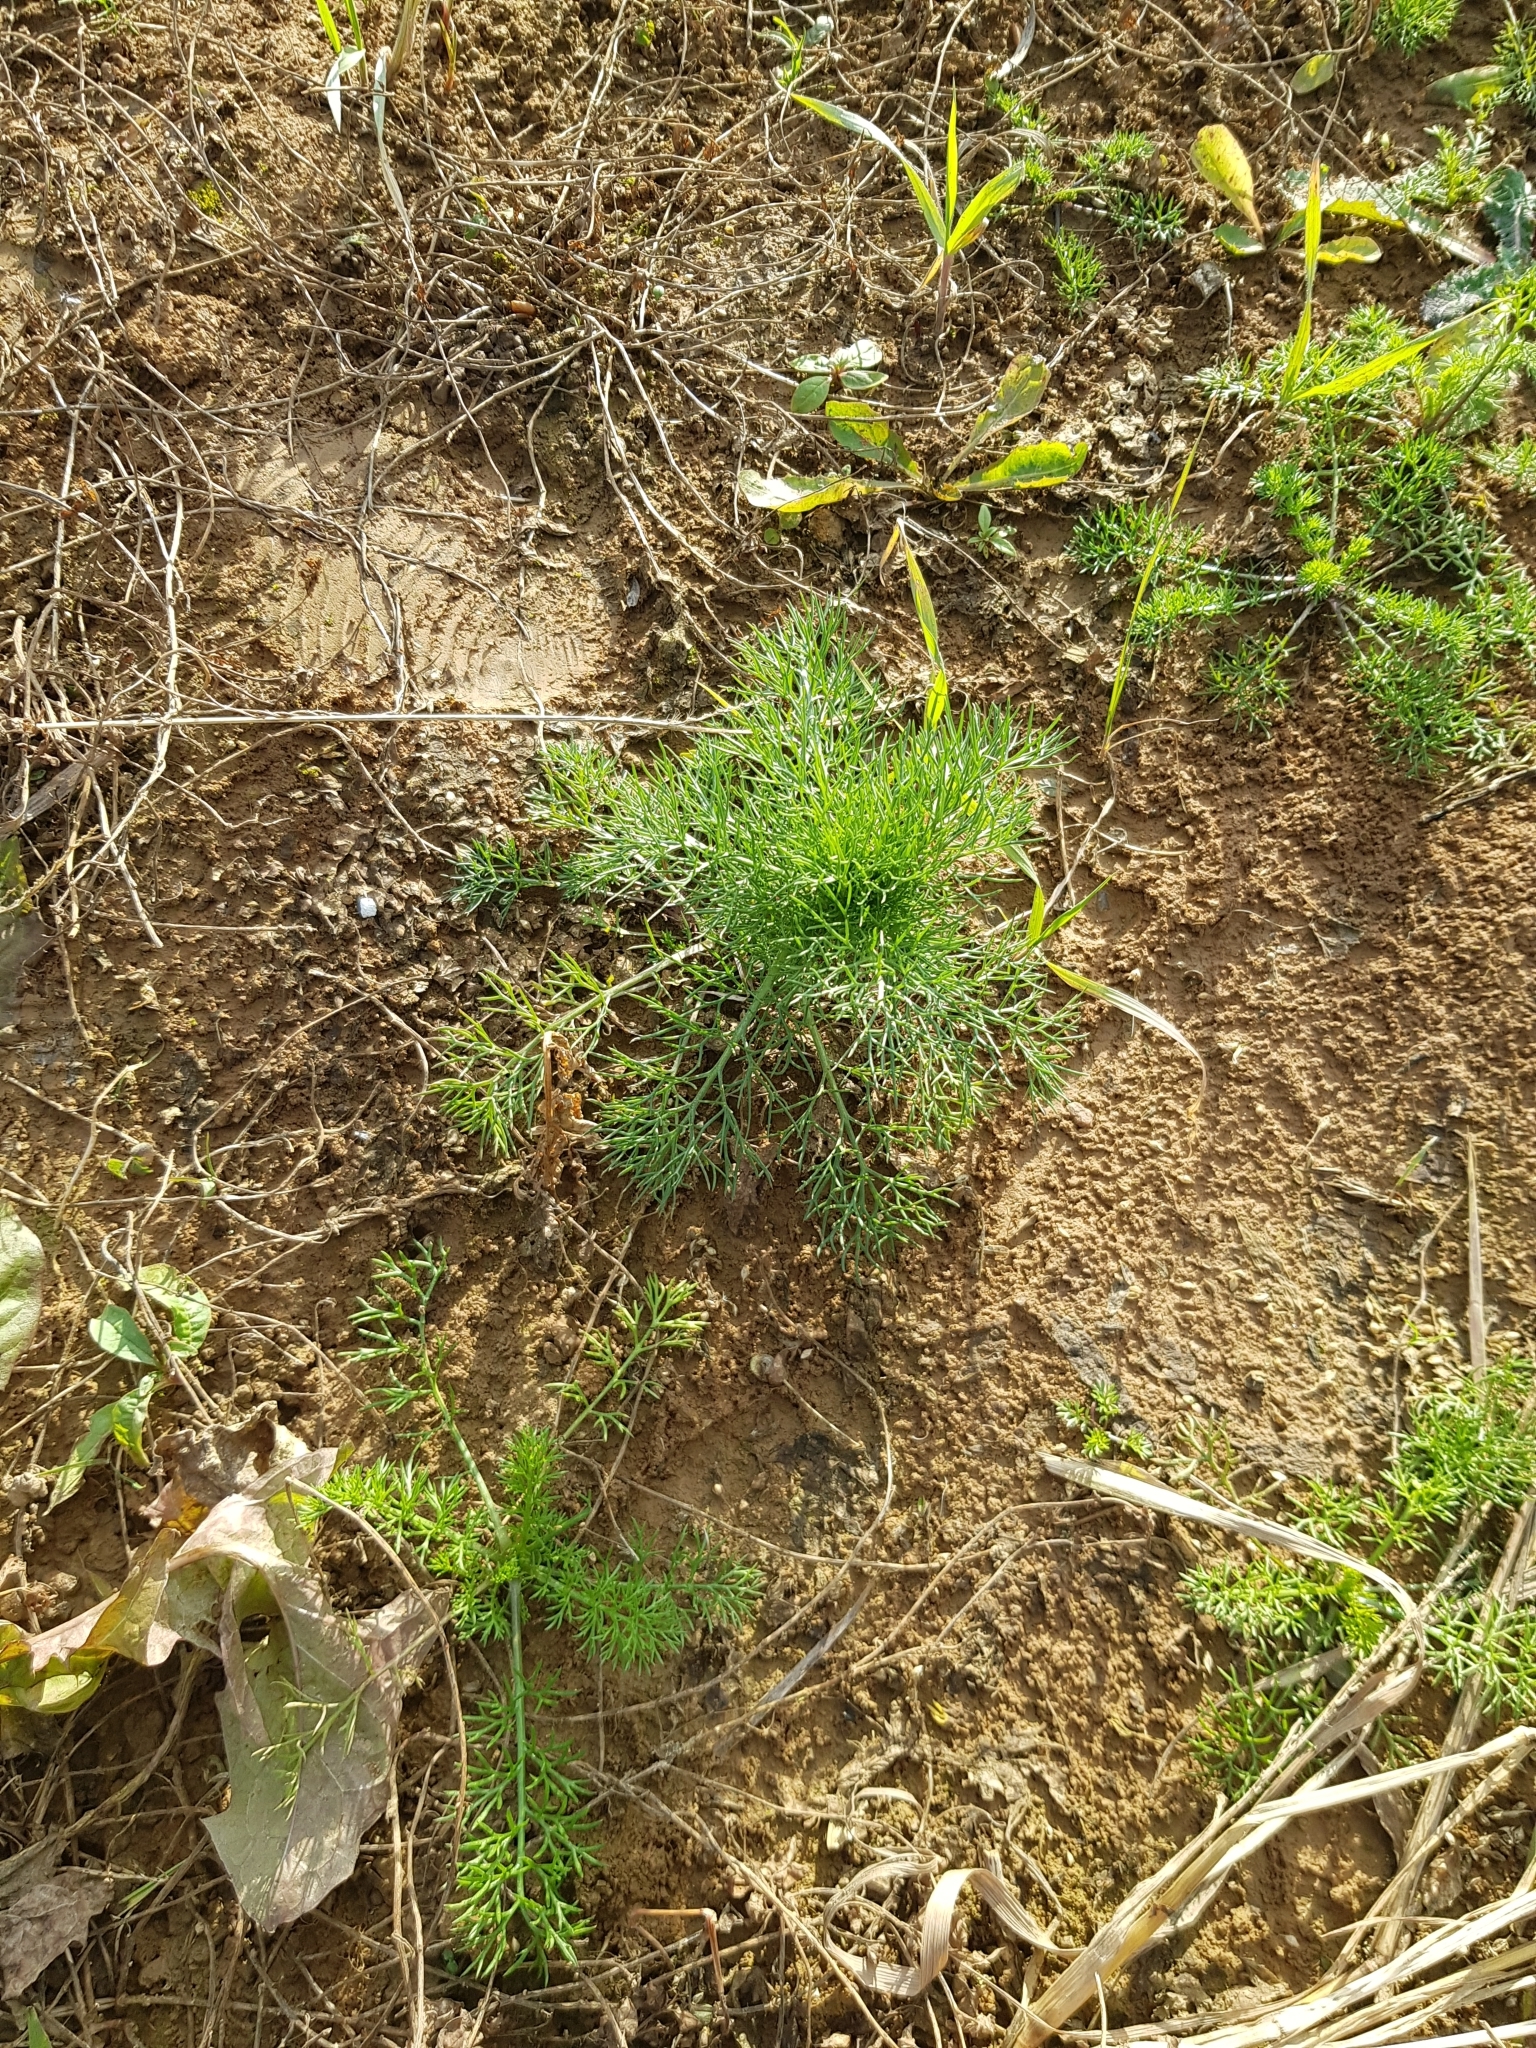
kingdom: Plantae
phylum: Tracheophyta
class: Magnoliopsida
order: Asterales
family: Asteraceae
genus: Tripleurospermum
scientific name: Tripleurospermum inodorum
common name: Scentless mayweed
